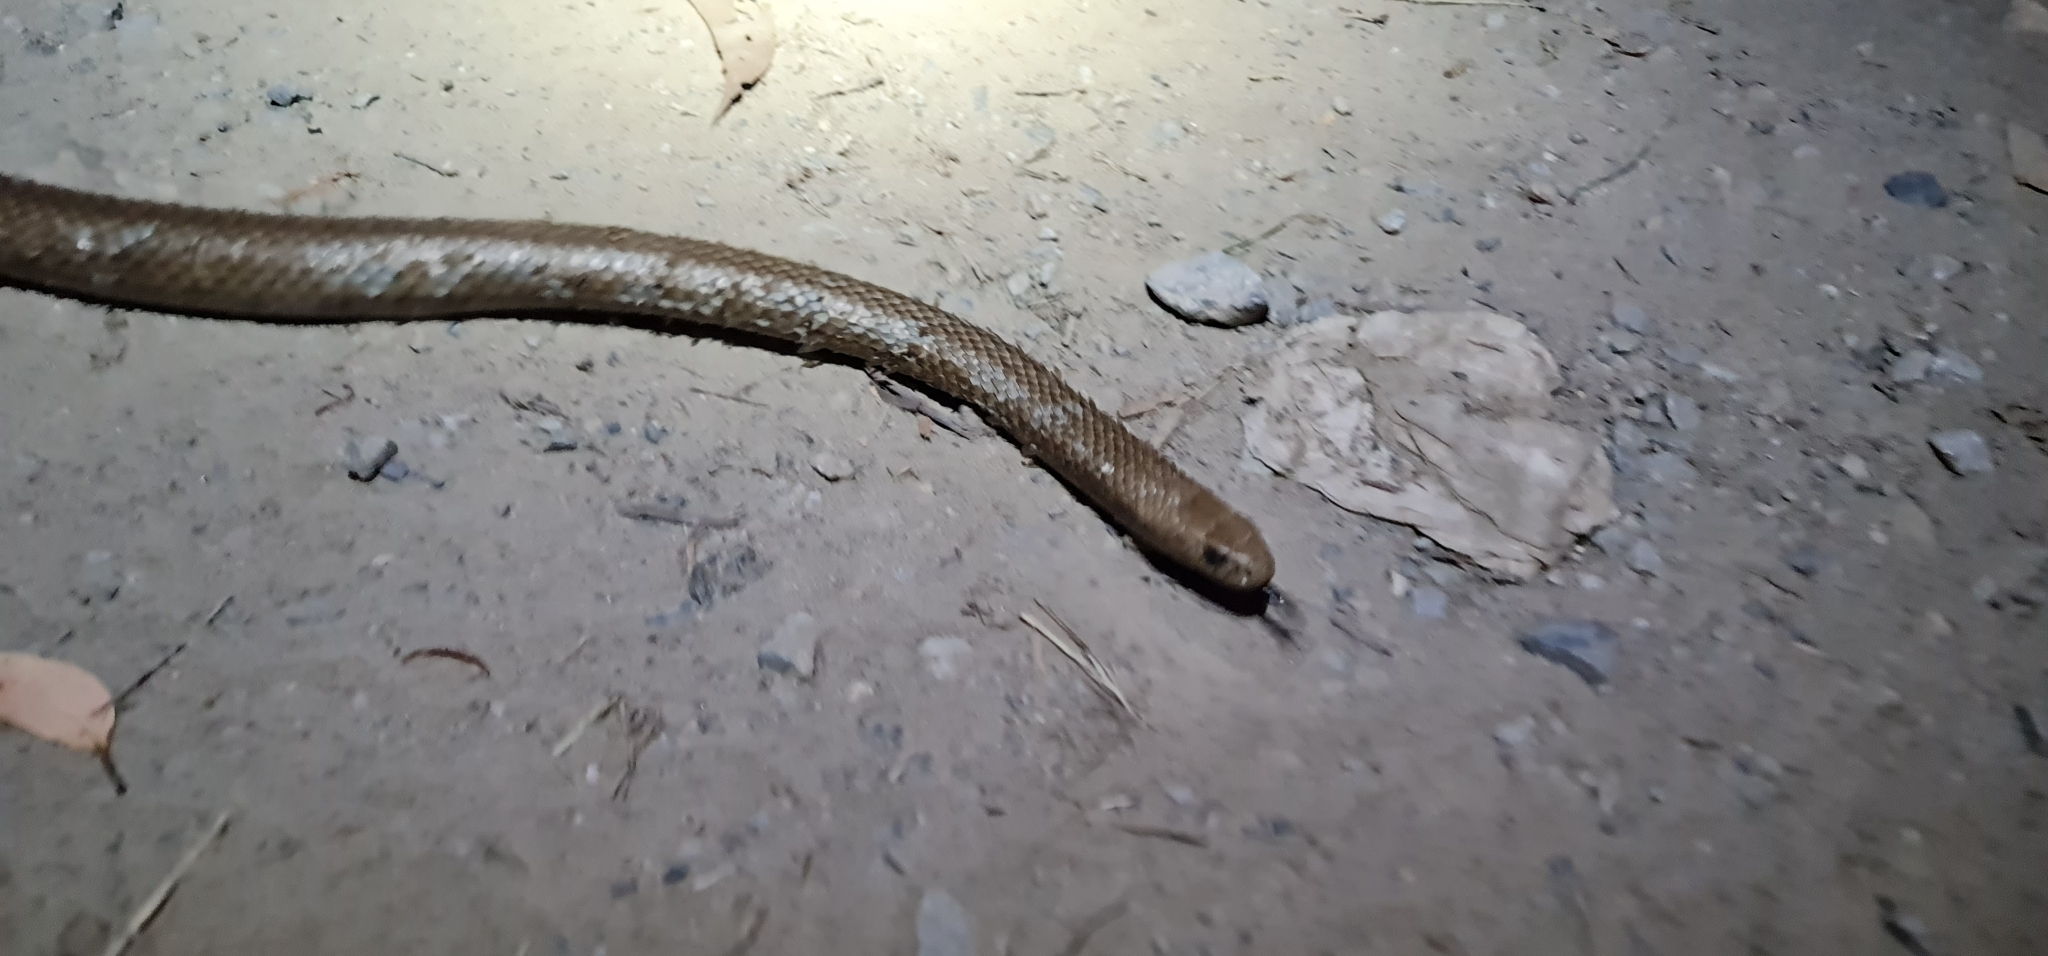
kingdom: Animalia
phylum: Chordata
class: Squamata
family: Elapidae
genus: Pseudonaja
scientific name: Pseudonaja textilis
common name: Eastern brown snake
